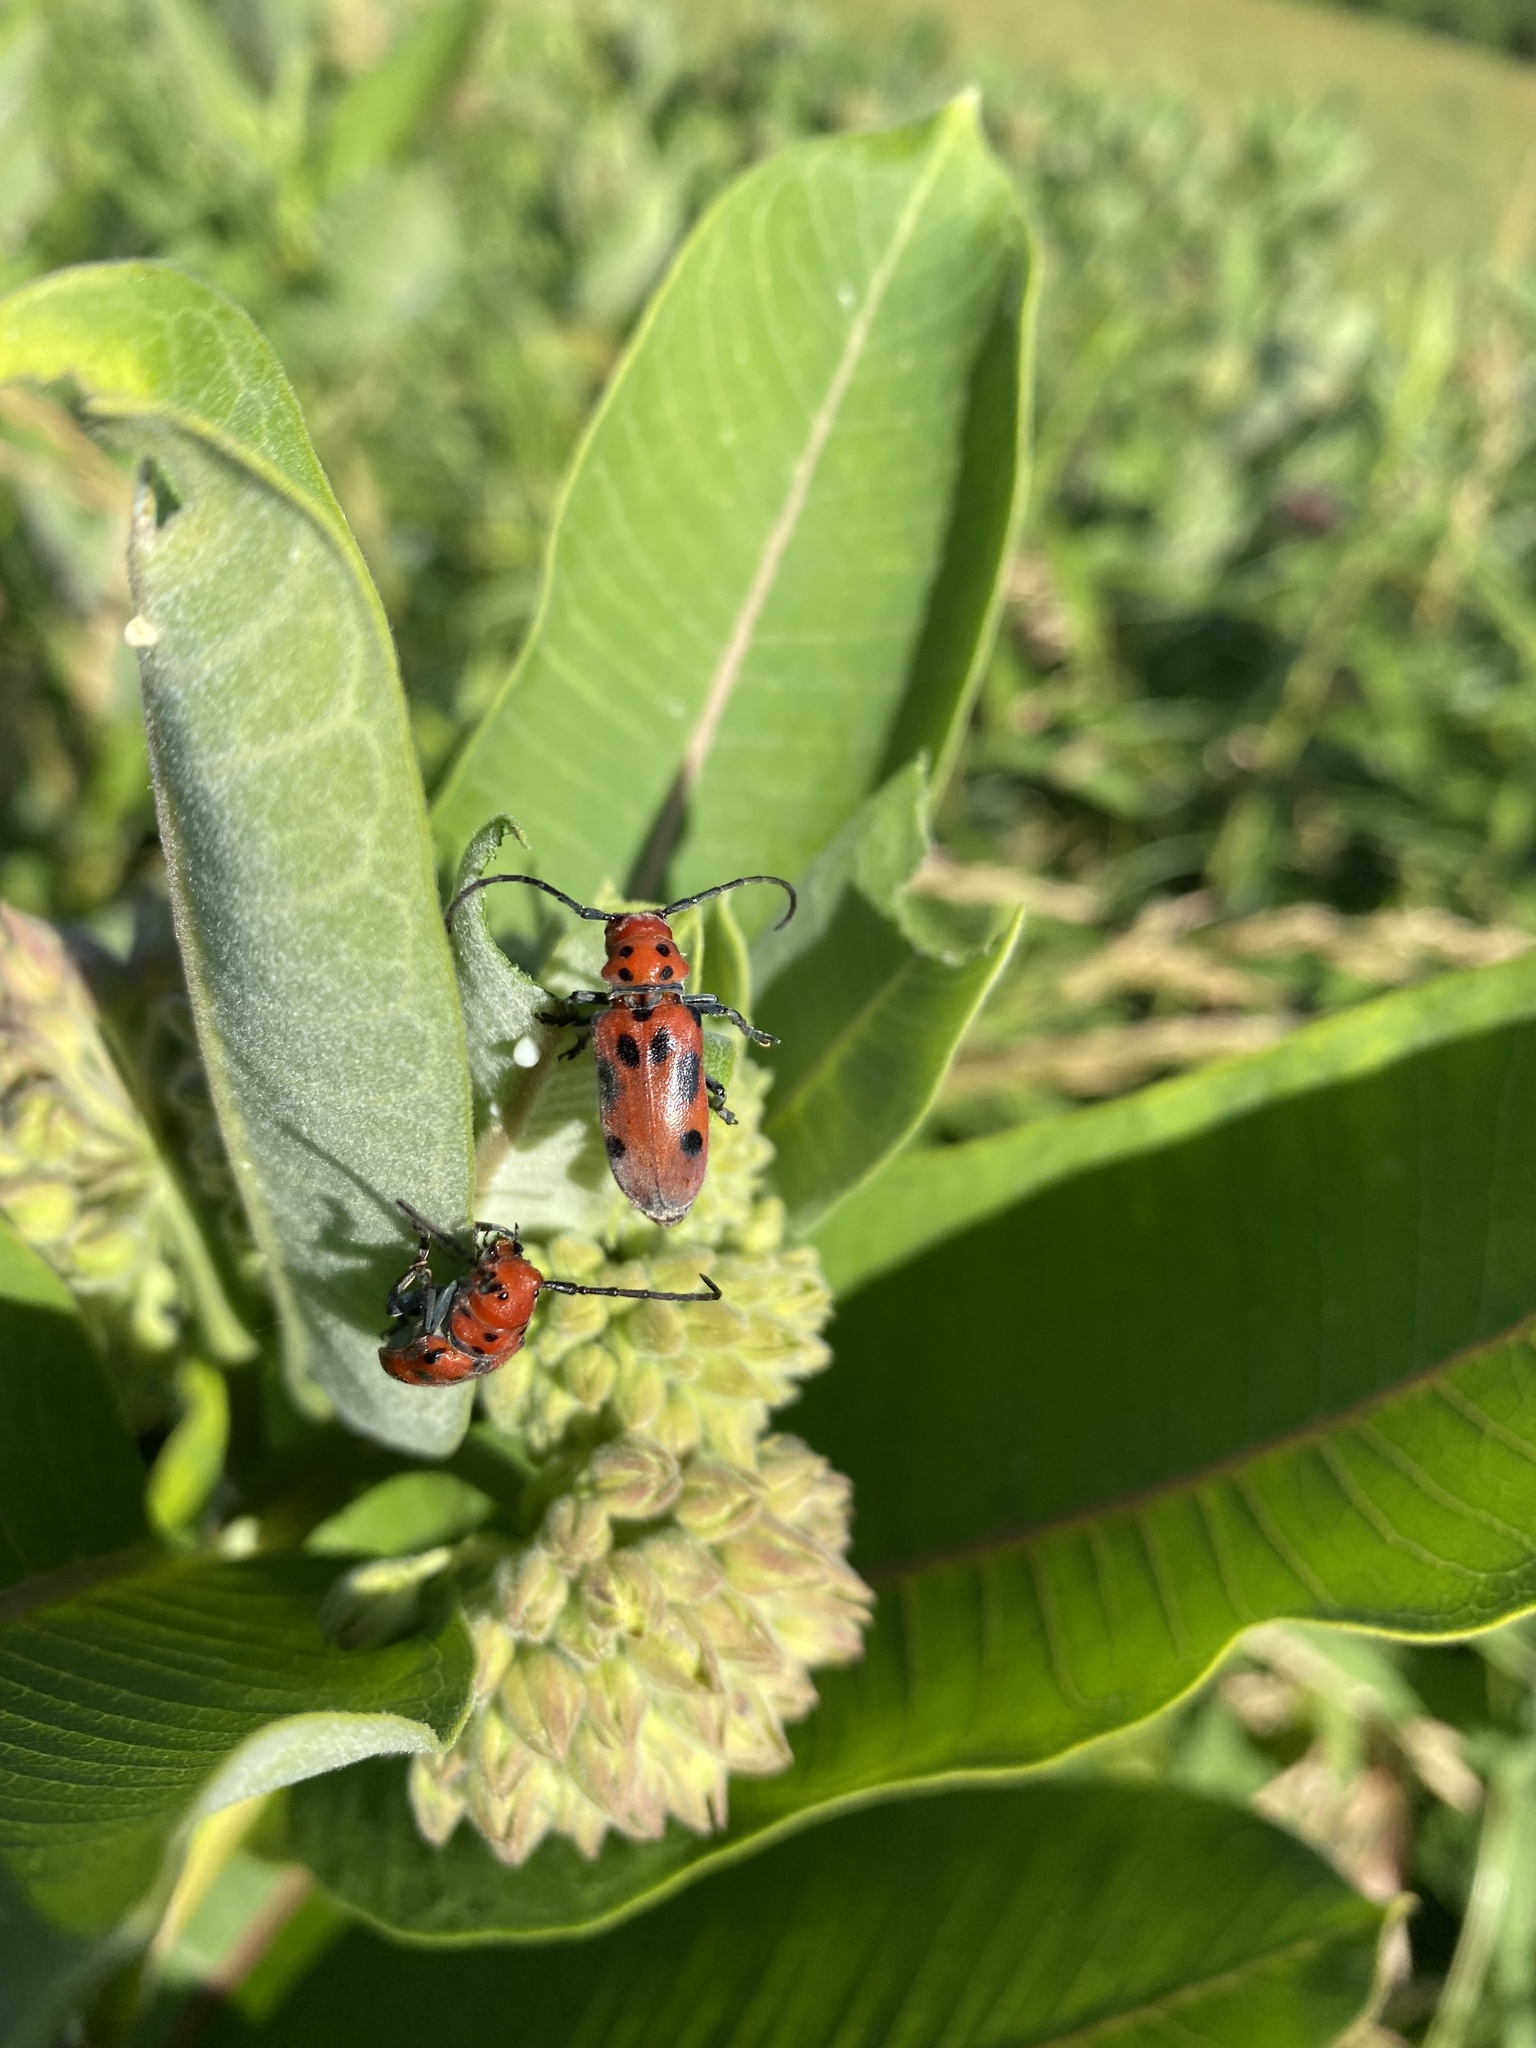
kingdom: Animalia
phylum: Arthropoda
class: Insecta
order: Coleoptera
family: Cerambycidae
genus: Tetraopes
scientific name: Tetraopes tetrophthalmus
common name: Red milkweed beetle
